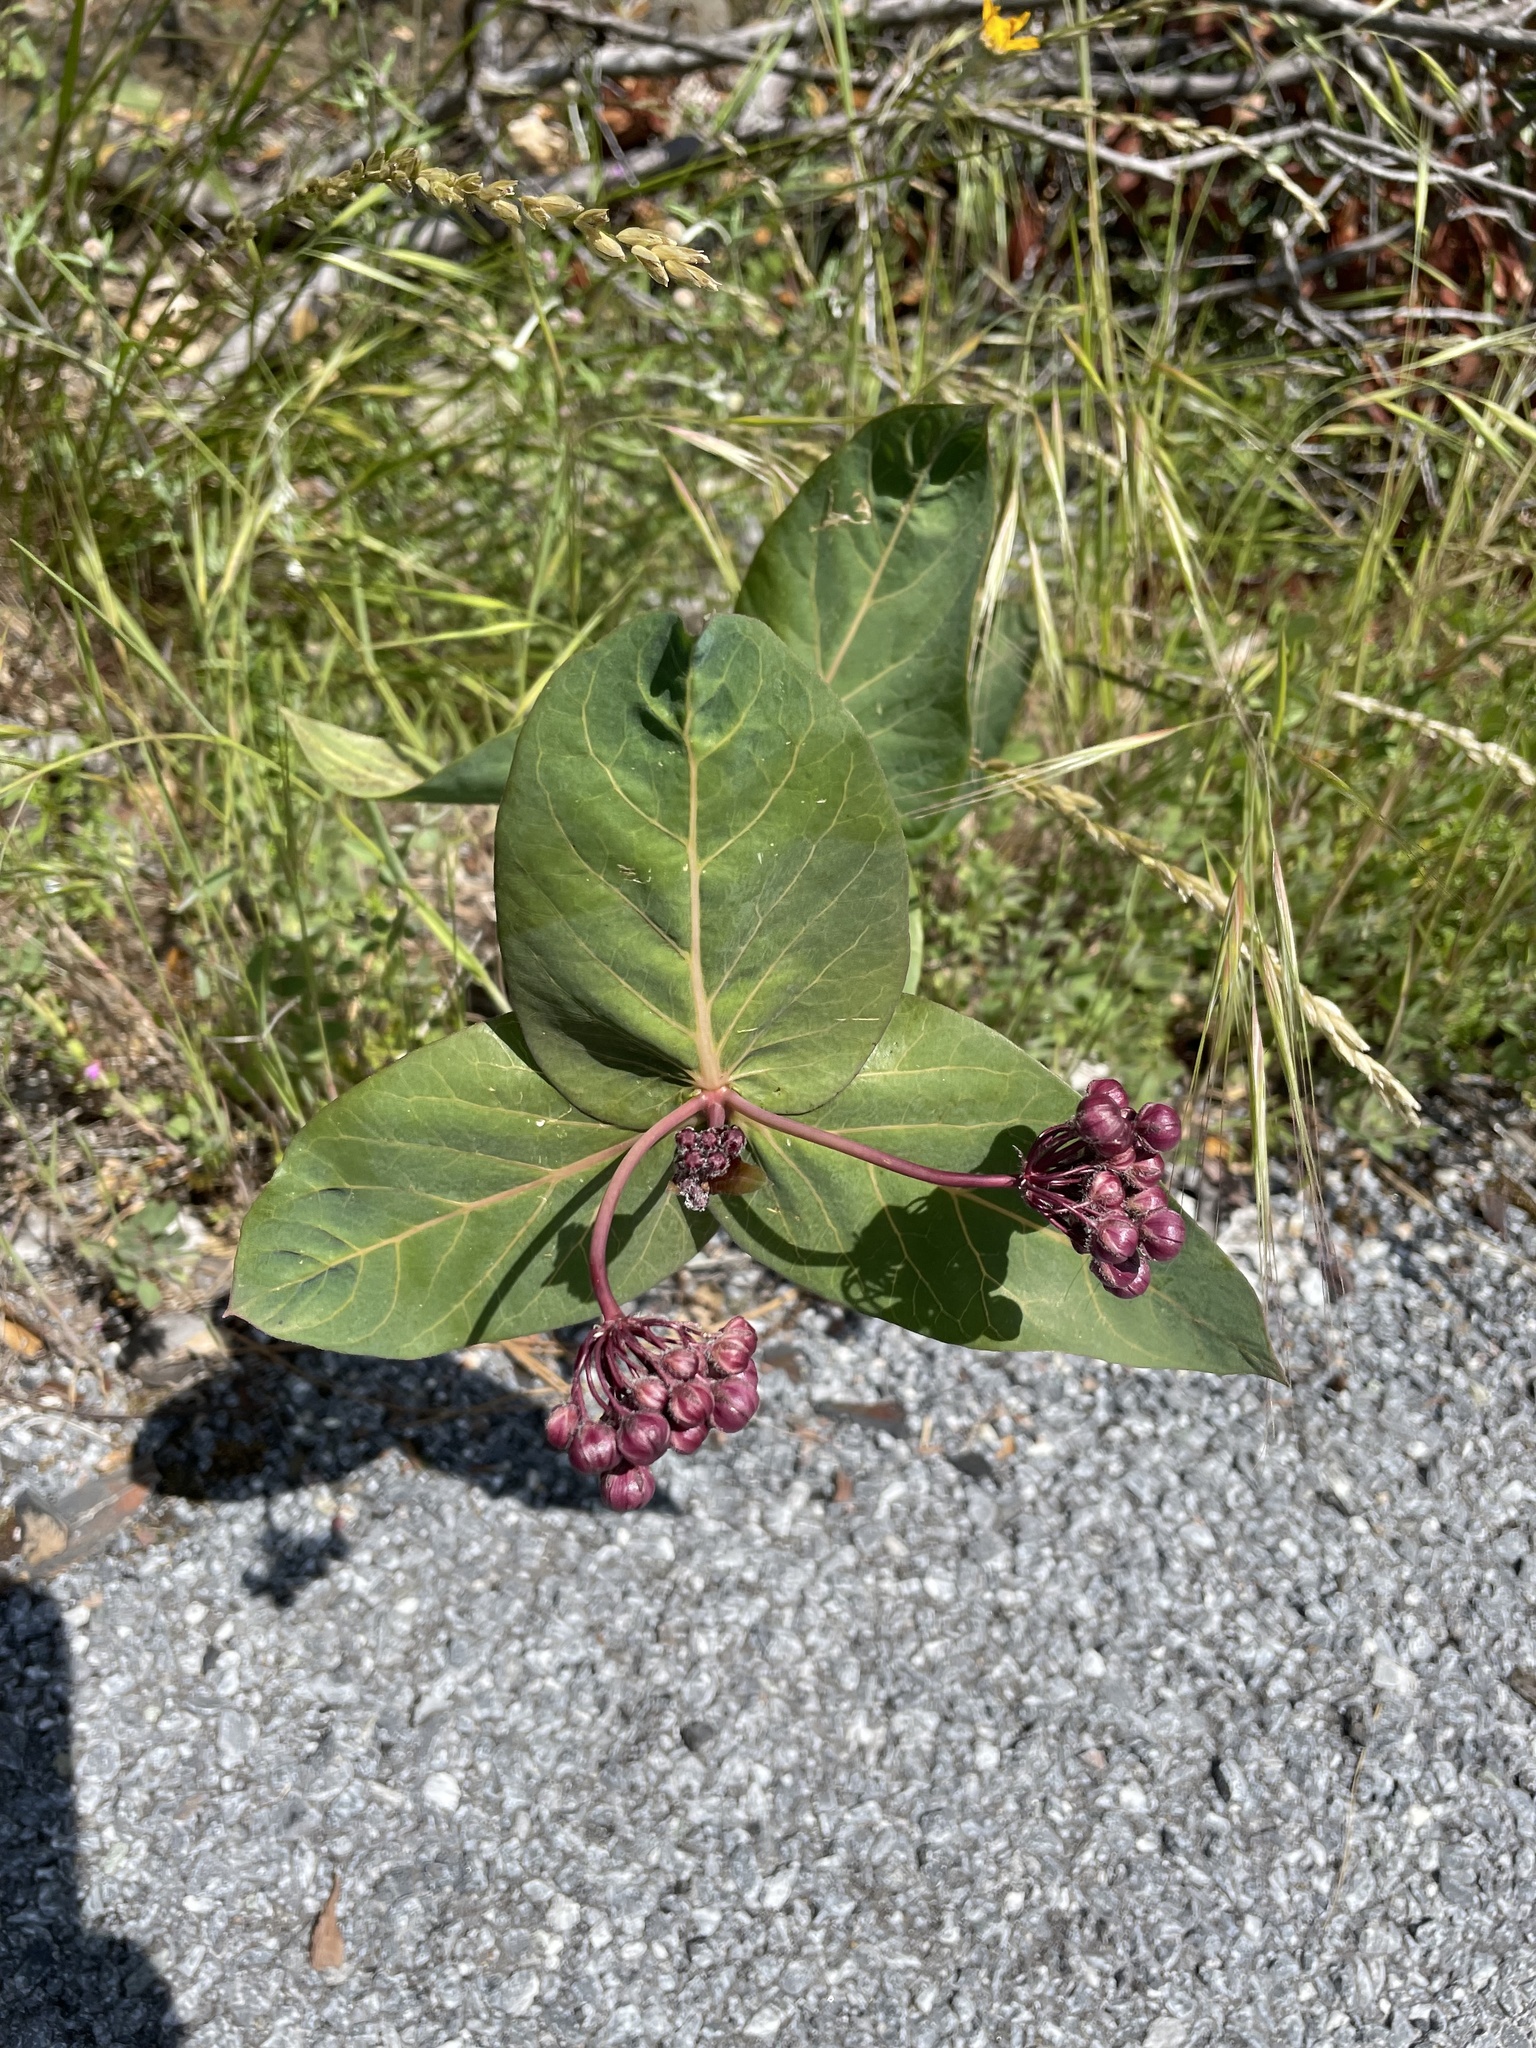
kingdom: Plantae
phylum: Tracheophyta
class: Magnoliopsida
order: Gentianales
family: Apocynaceae
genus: Asclepias
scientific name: Asclepias cordifolia
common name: Purple milkweed
